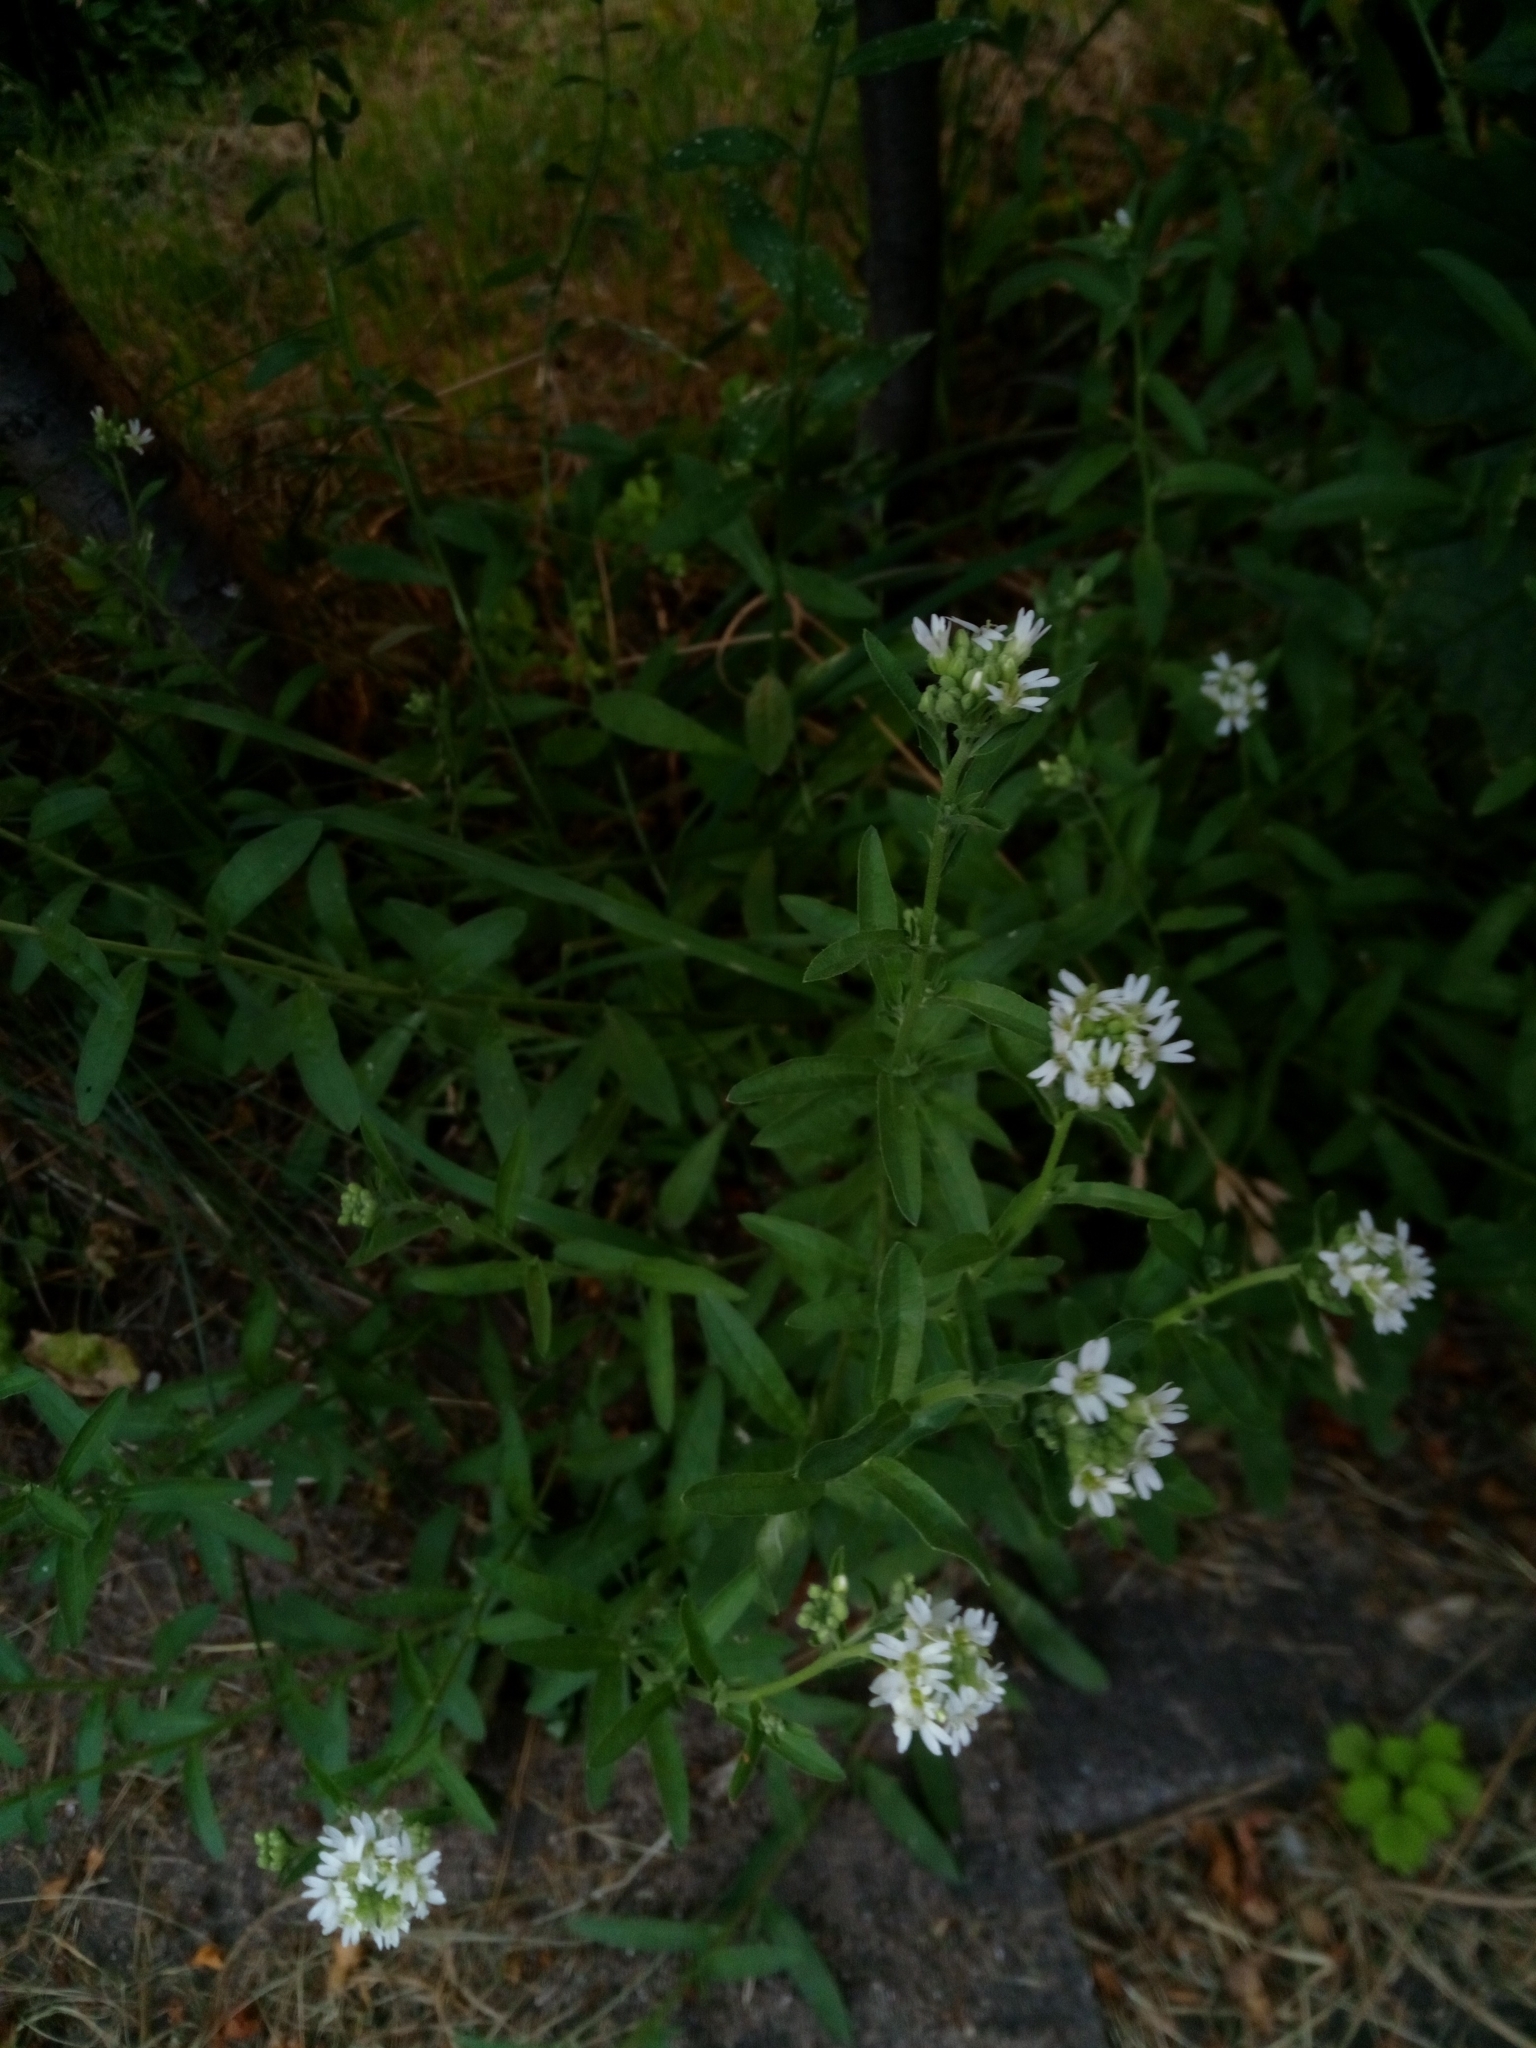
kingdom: Plantae
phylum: Tracheophyta
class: Magnoliopsida
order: Brassicales
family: Brassicaceae
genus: Berteroa
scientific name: Berteroa incana
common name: Hoary alison
